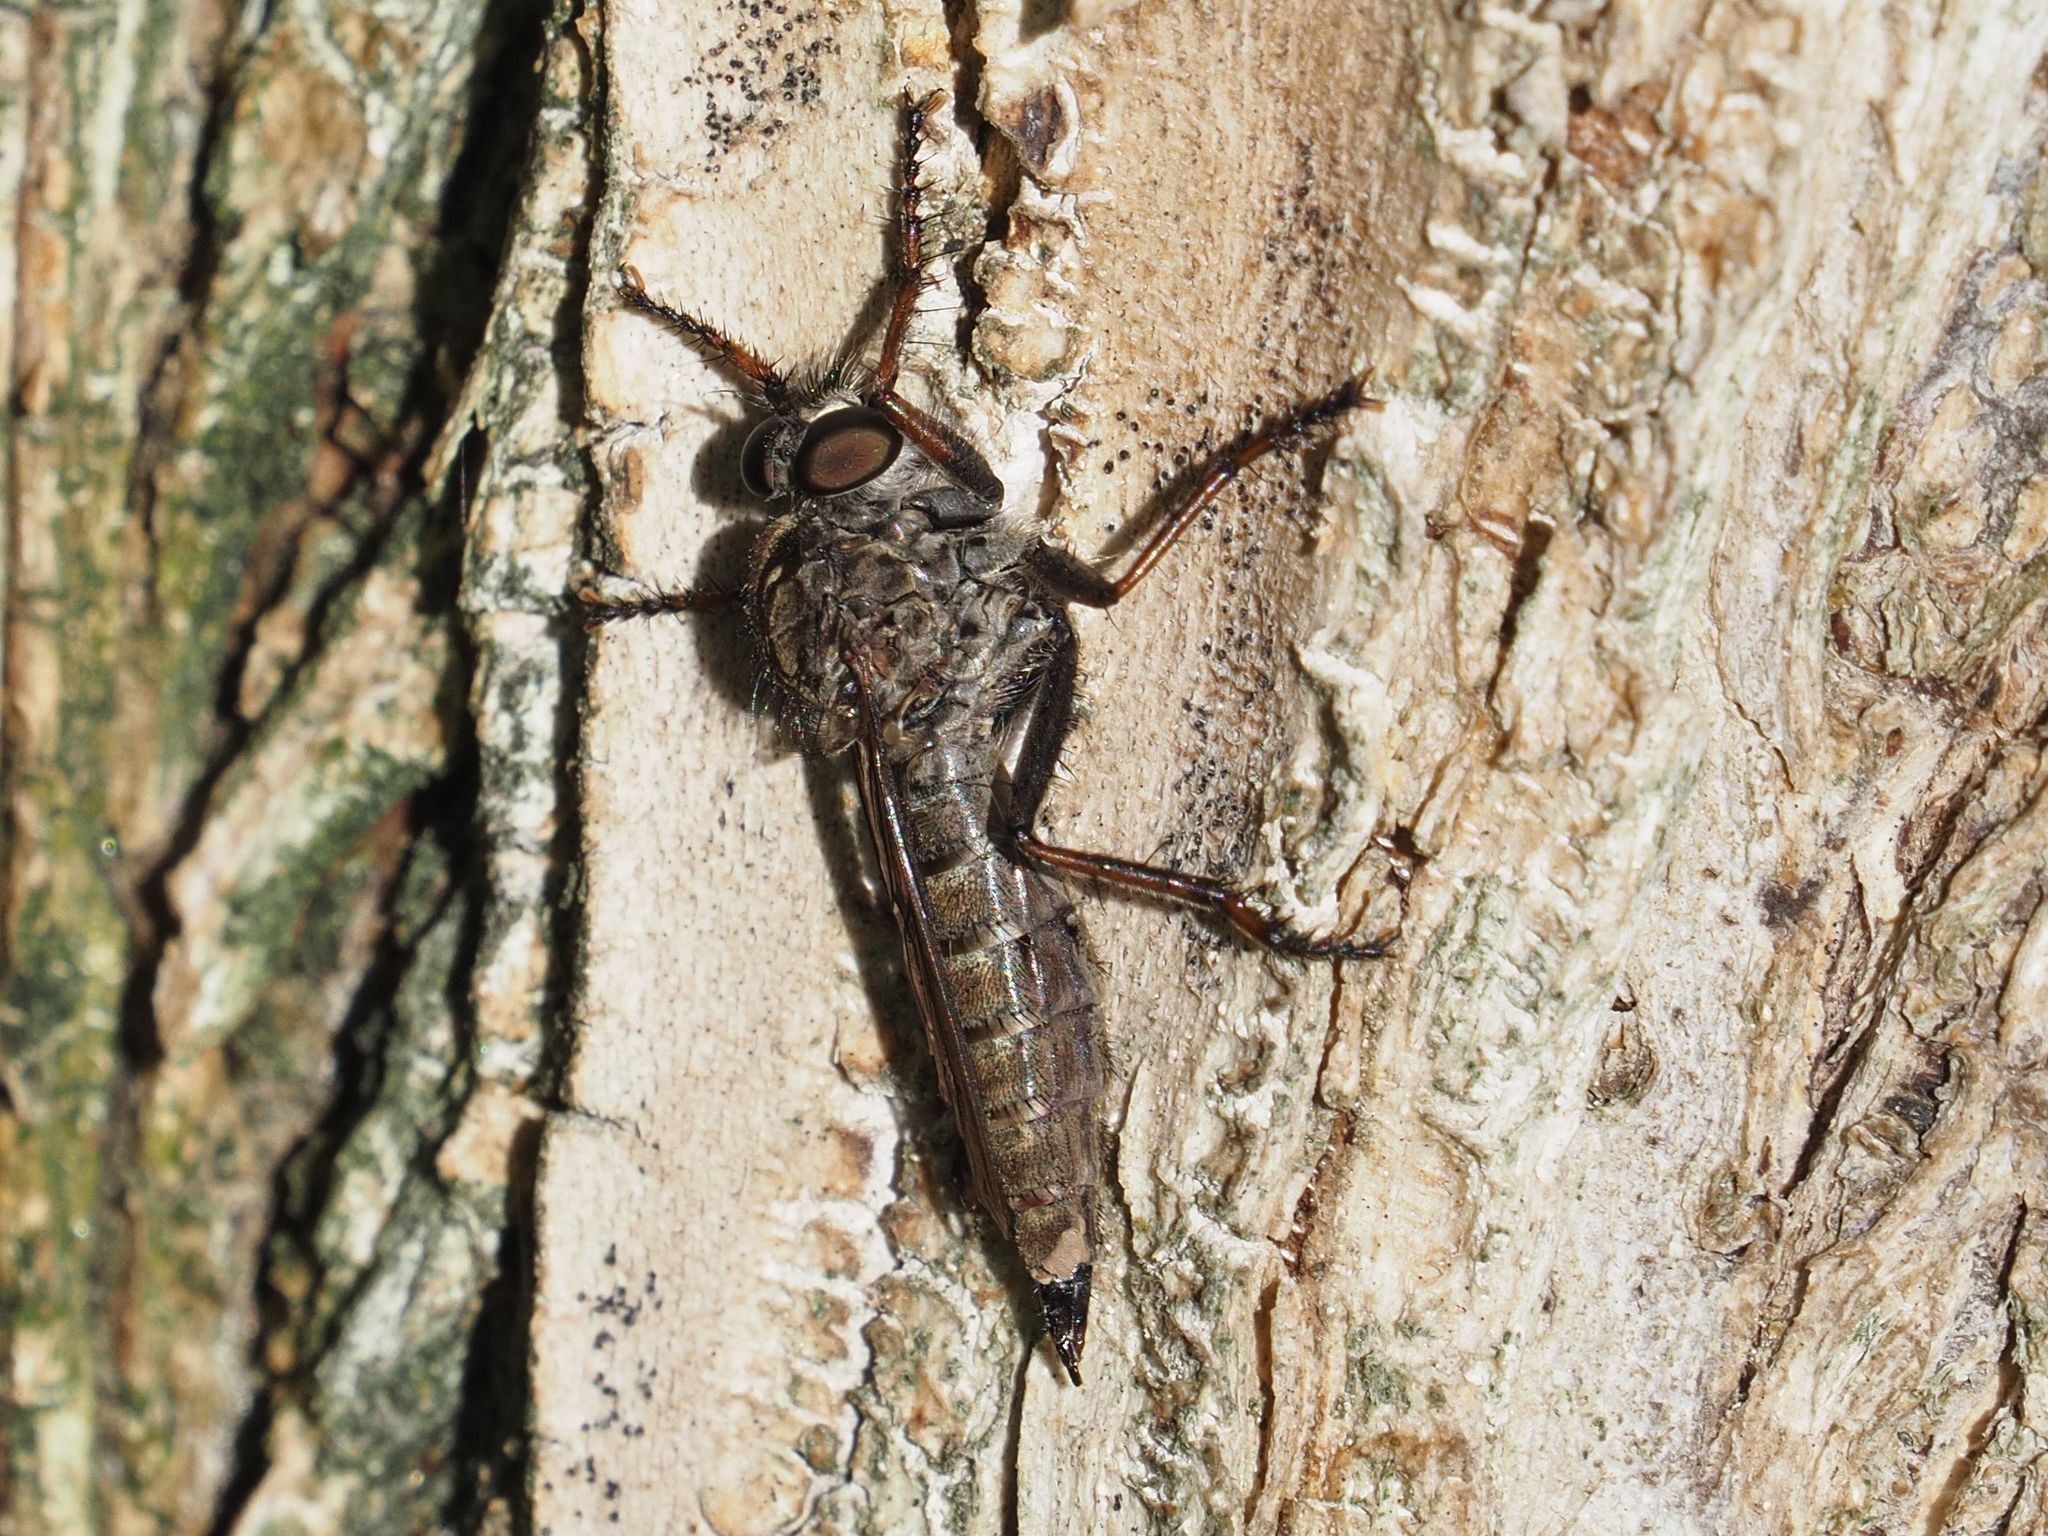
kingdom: Animalia
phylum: Arthropoda
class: Insecta
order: Diptera
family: Asilidae
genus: Machimus
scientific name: Machimus atricapillus
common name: Kite-tailed robberfly
